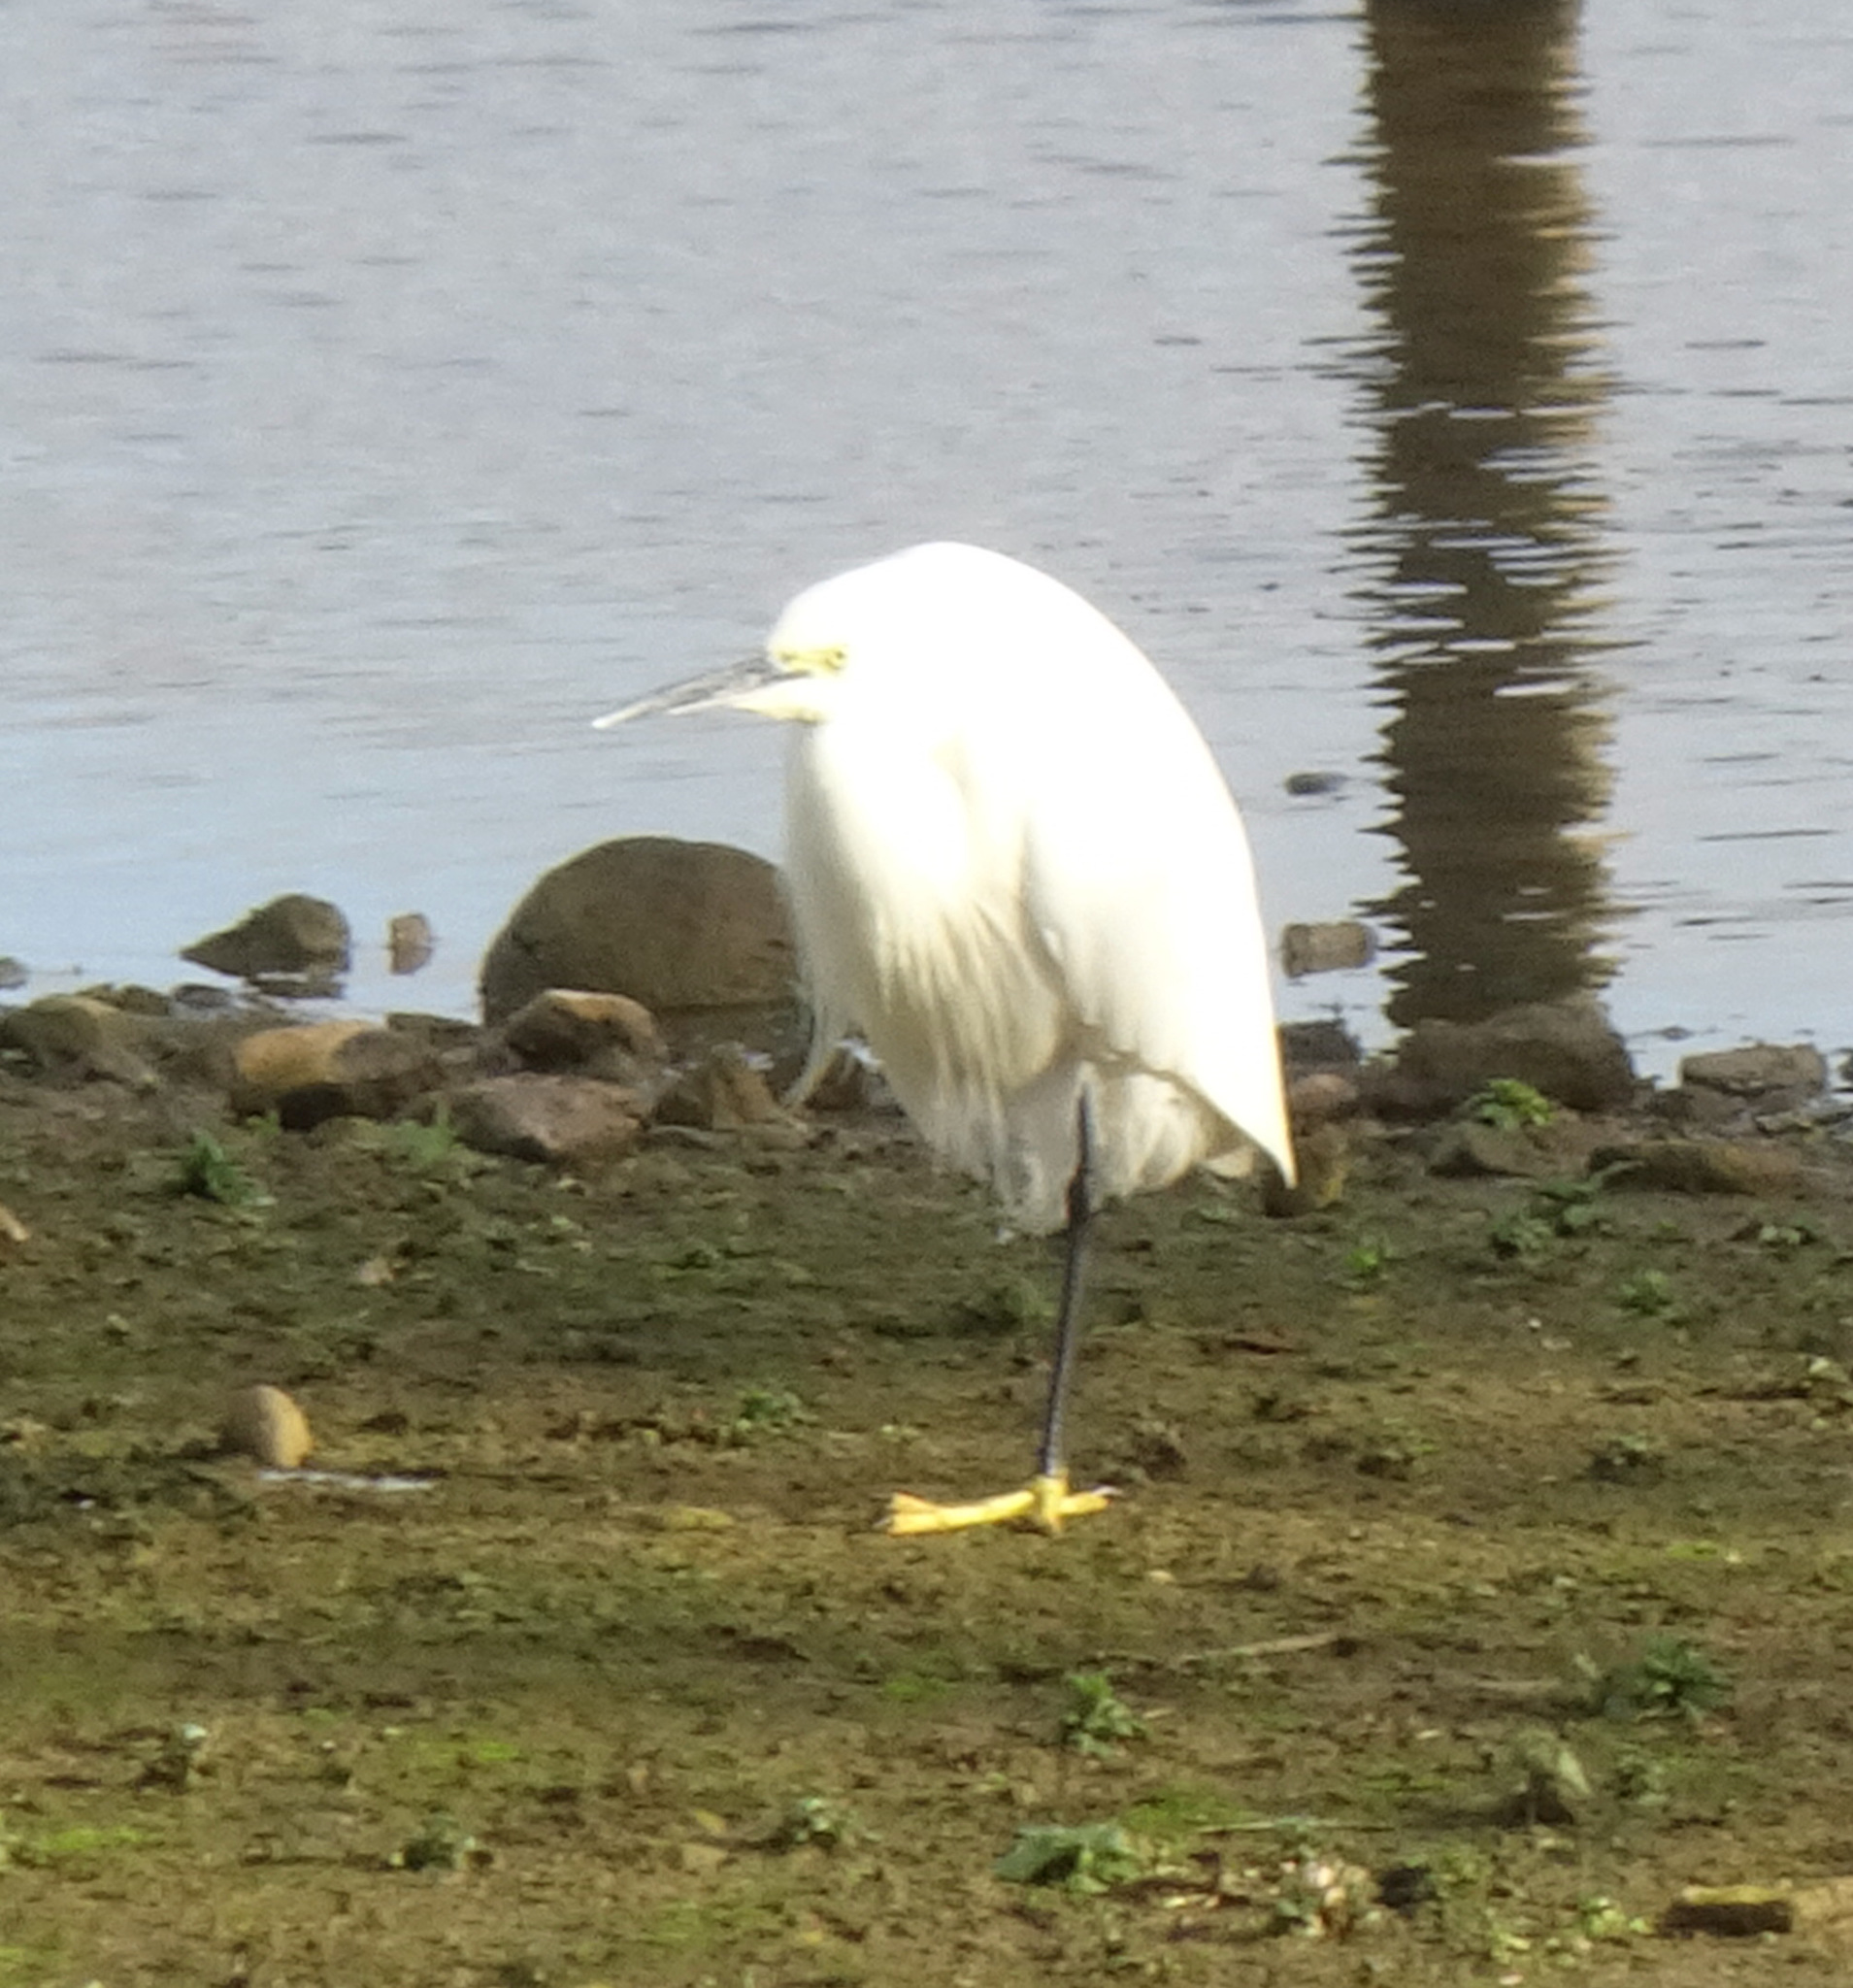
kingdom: Animalia
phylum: Chordata
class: Aves
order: Pelecaniformes
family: Ardeidae
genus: Egretta
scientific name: Egretta garzetta
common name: Little egret
